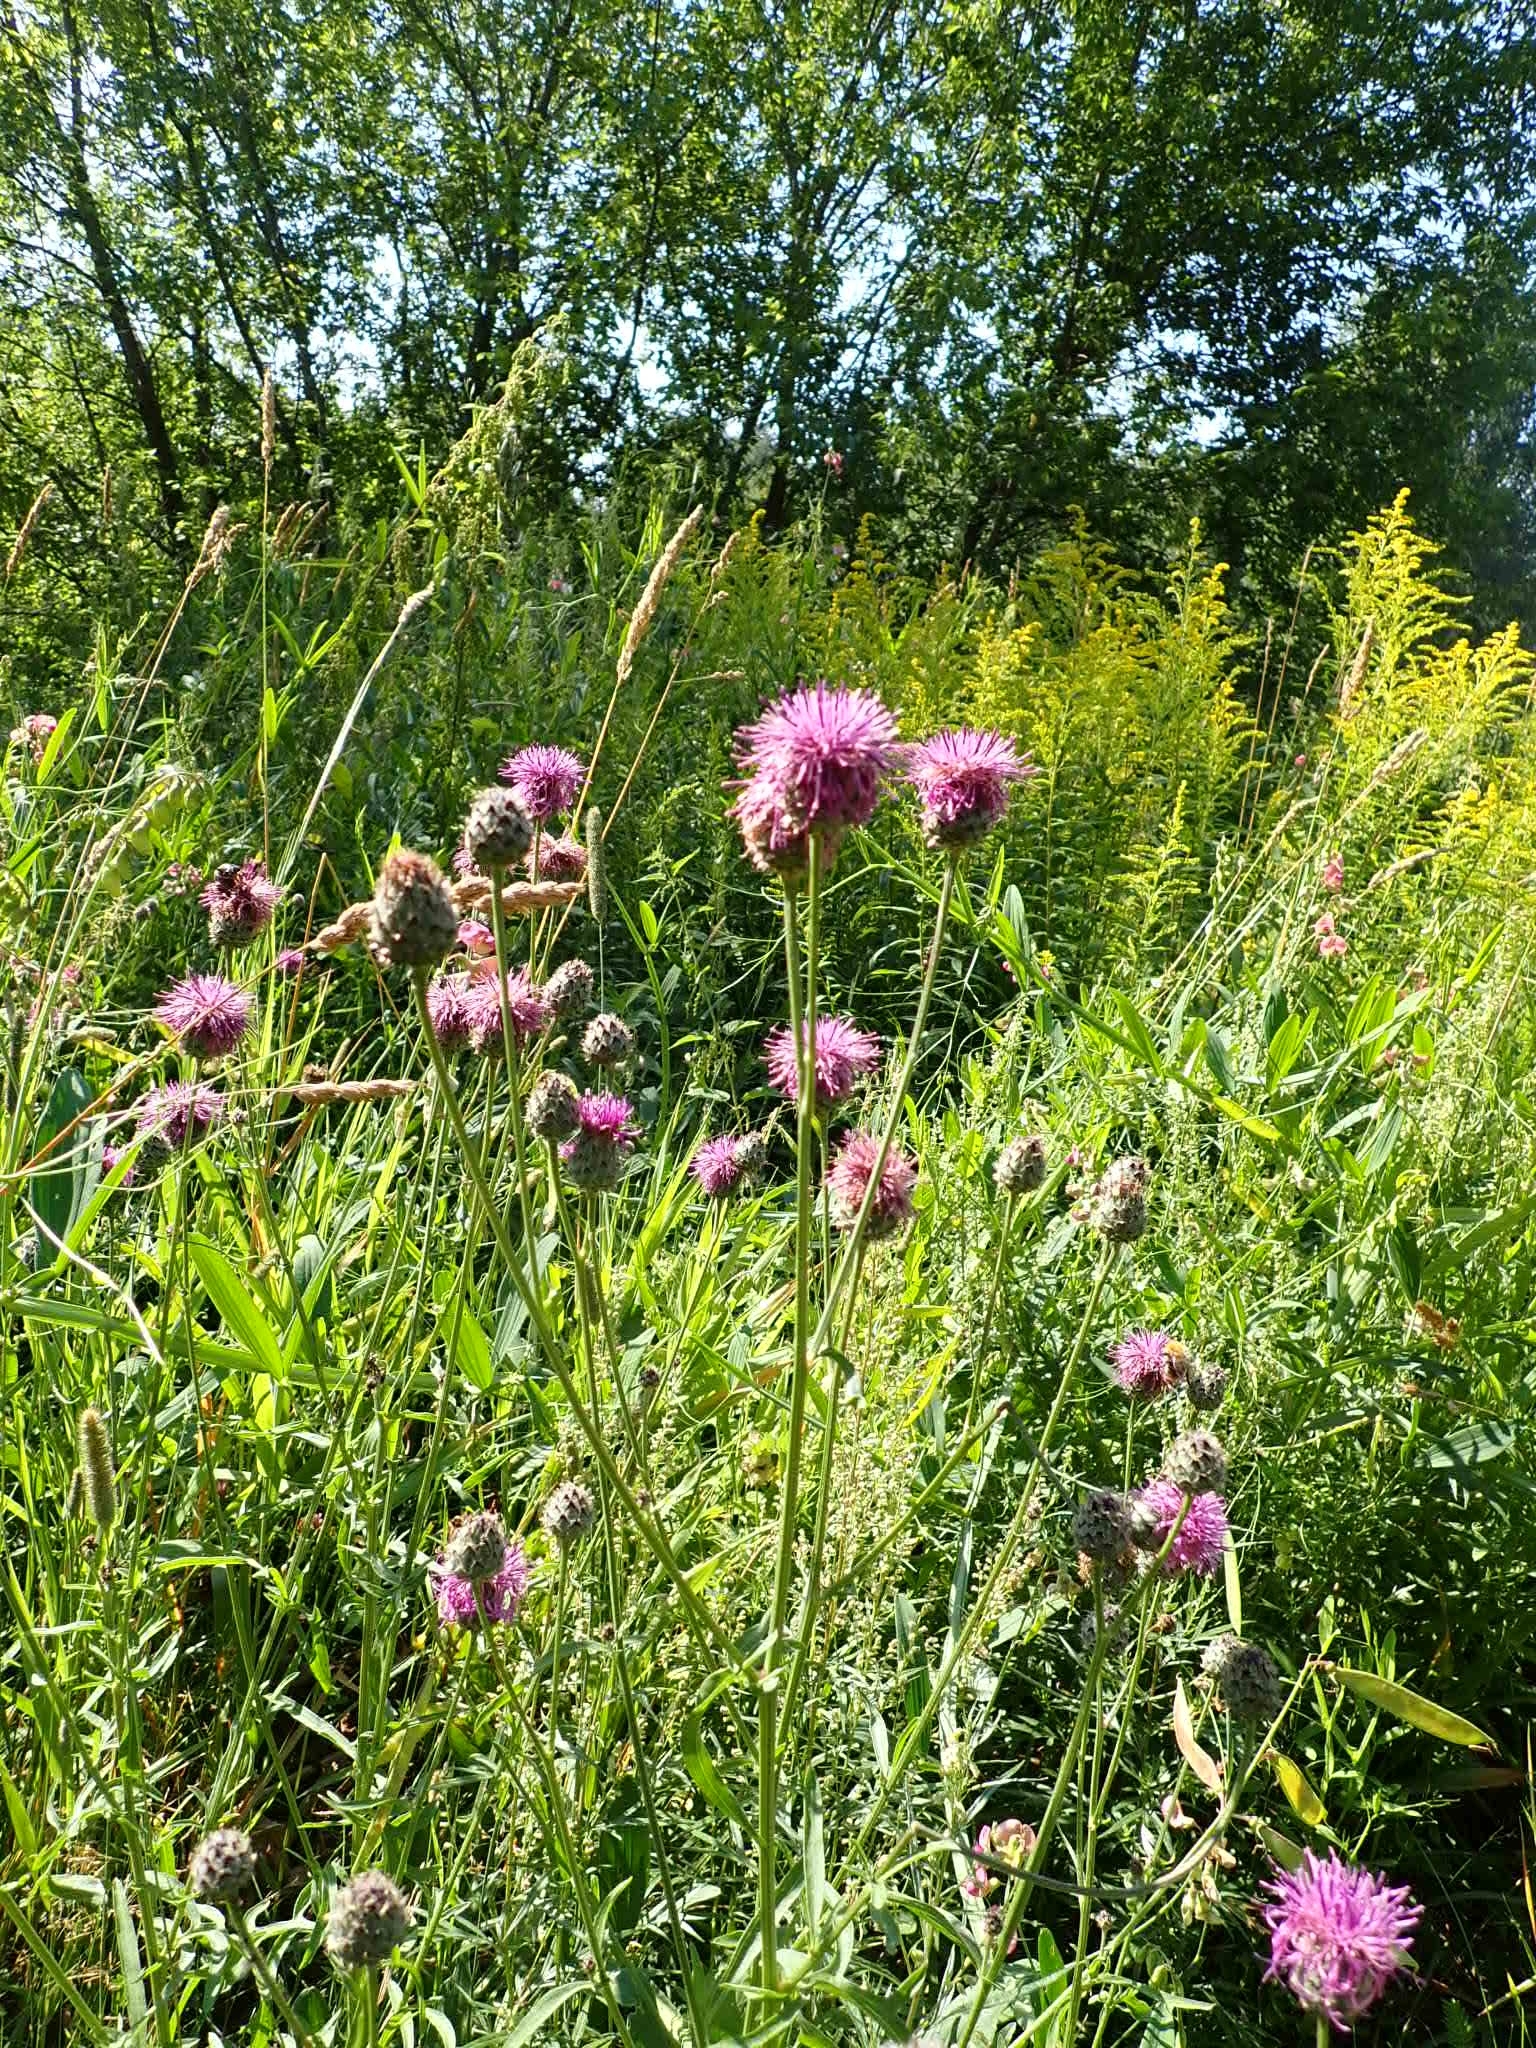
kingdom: Plantae
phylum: Tracheophyta
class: Magnoliopsida
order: Asterales
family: Asteraceae
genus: Centaurea
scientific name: Centaurea scabiosa
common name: Greater knapweed
